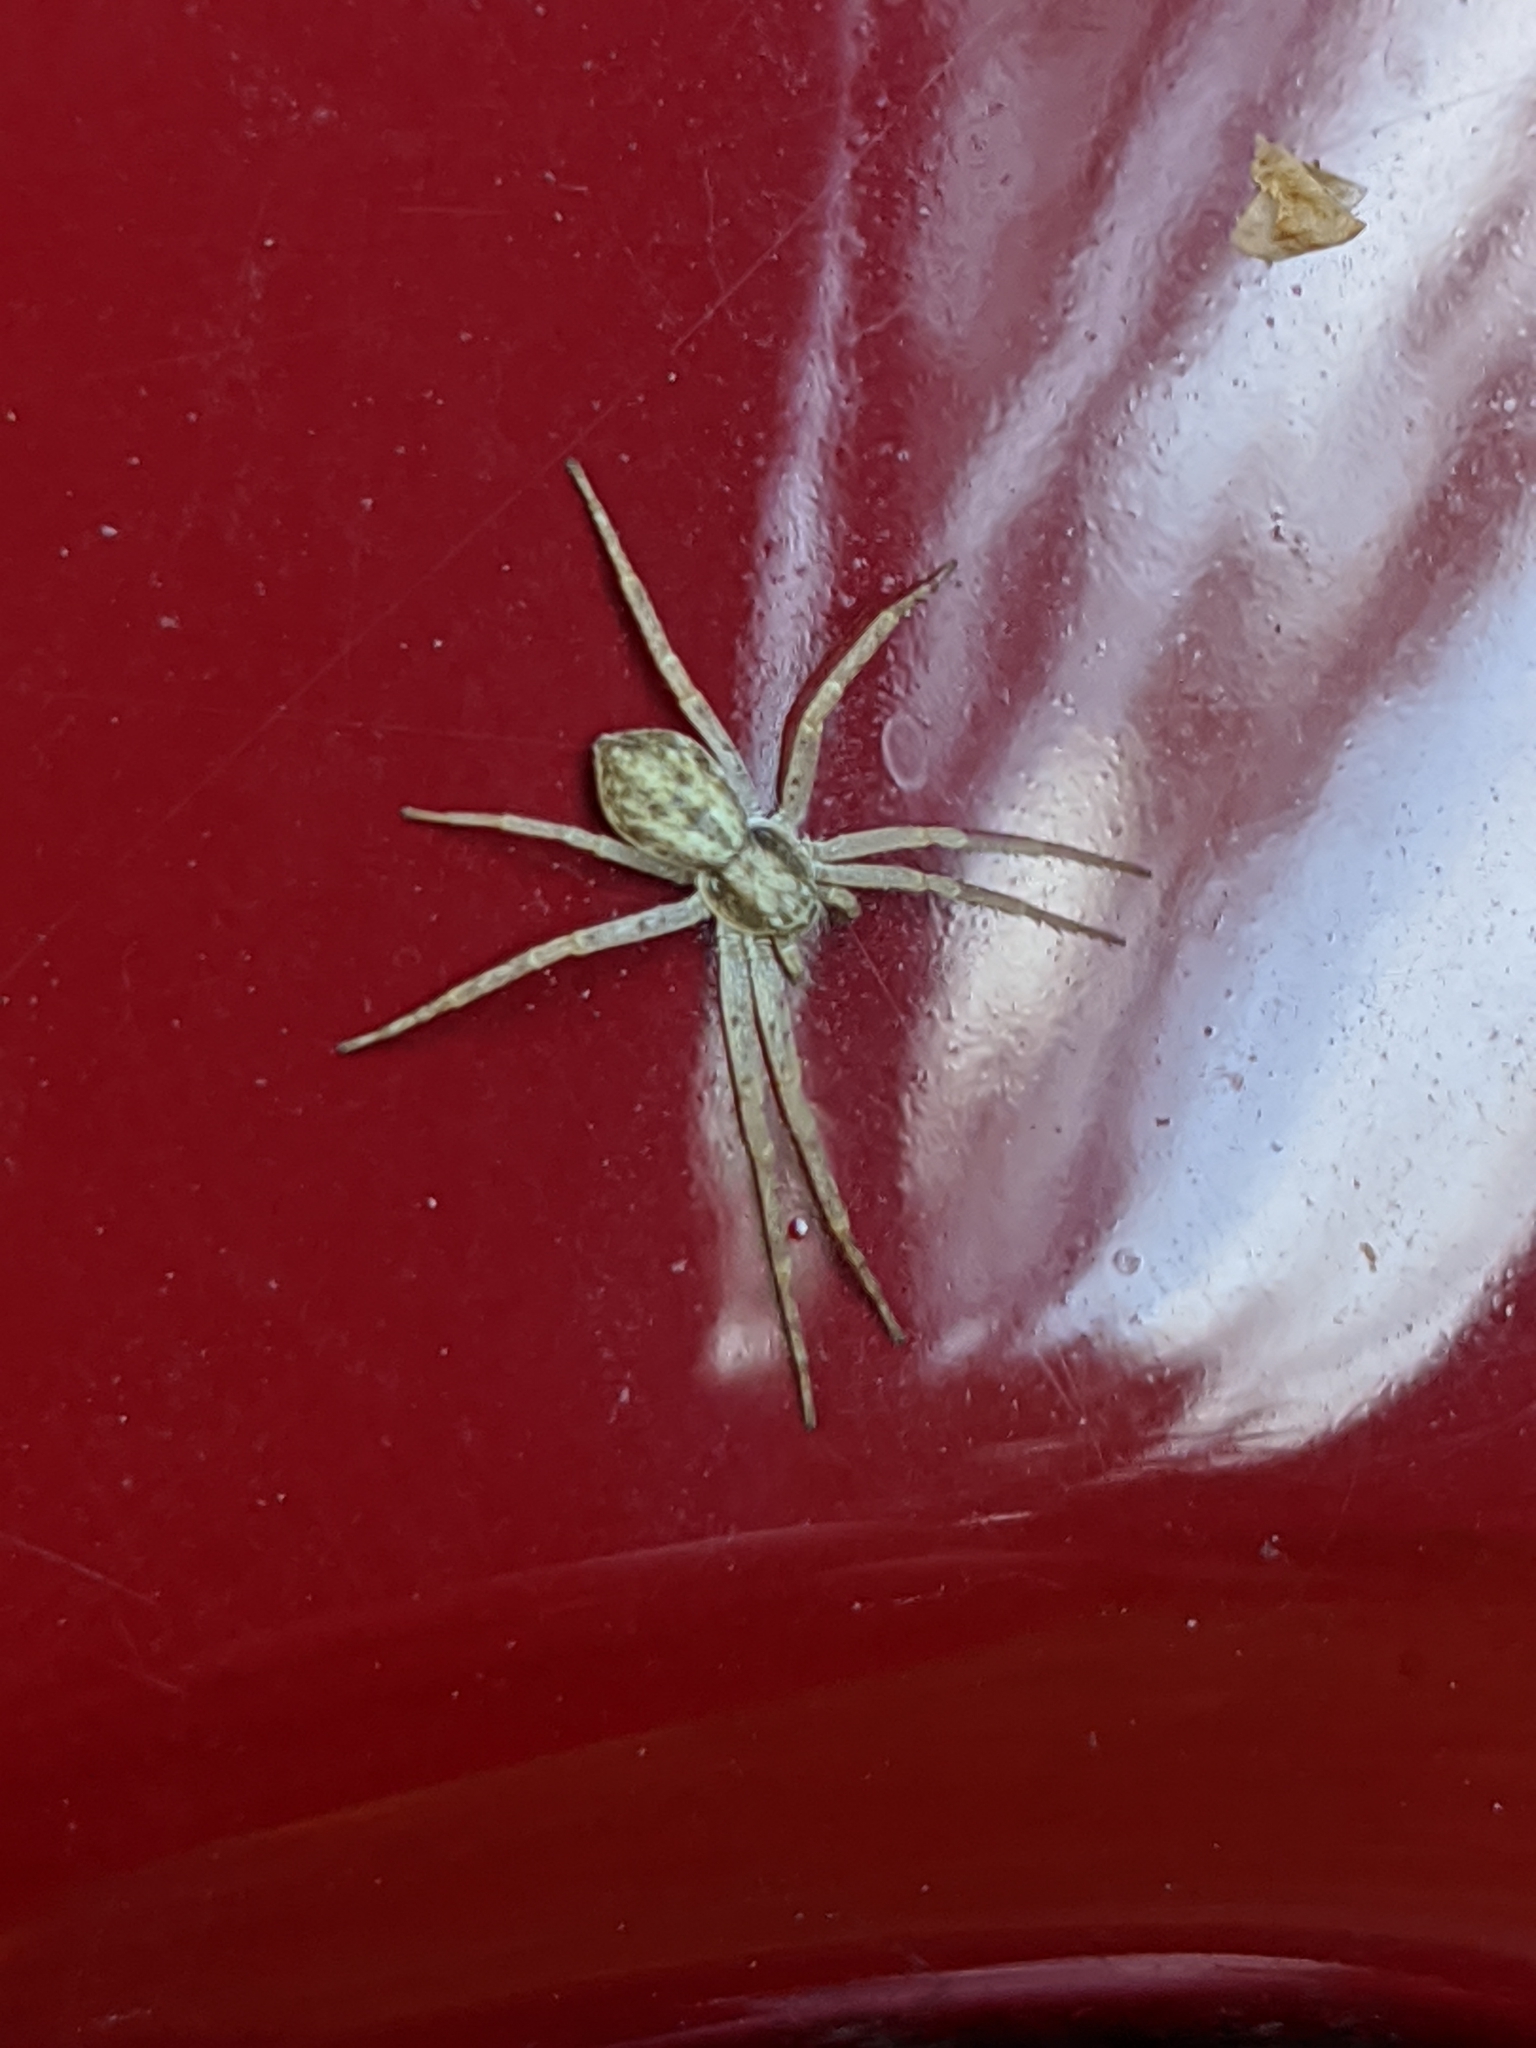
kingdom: Animalia
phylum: Arthropoda
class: Arachnida
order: Araneae
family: Philodromidae
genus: Philodromus
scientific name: Philodromus dispar
